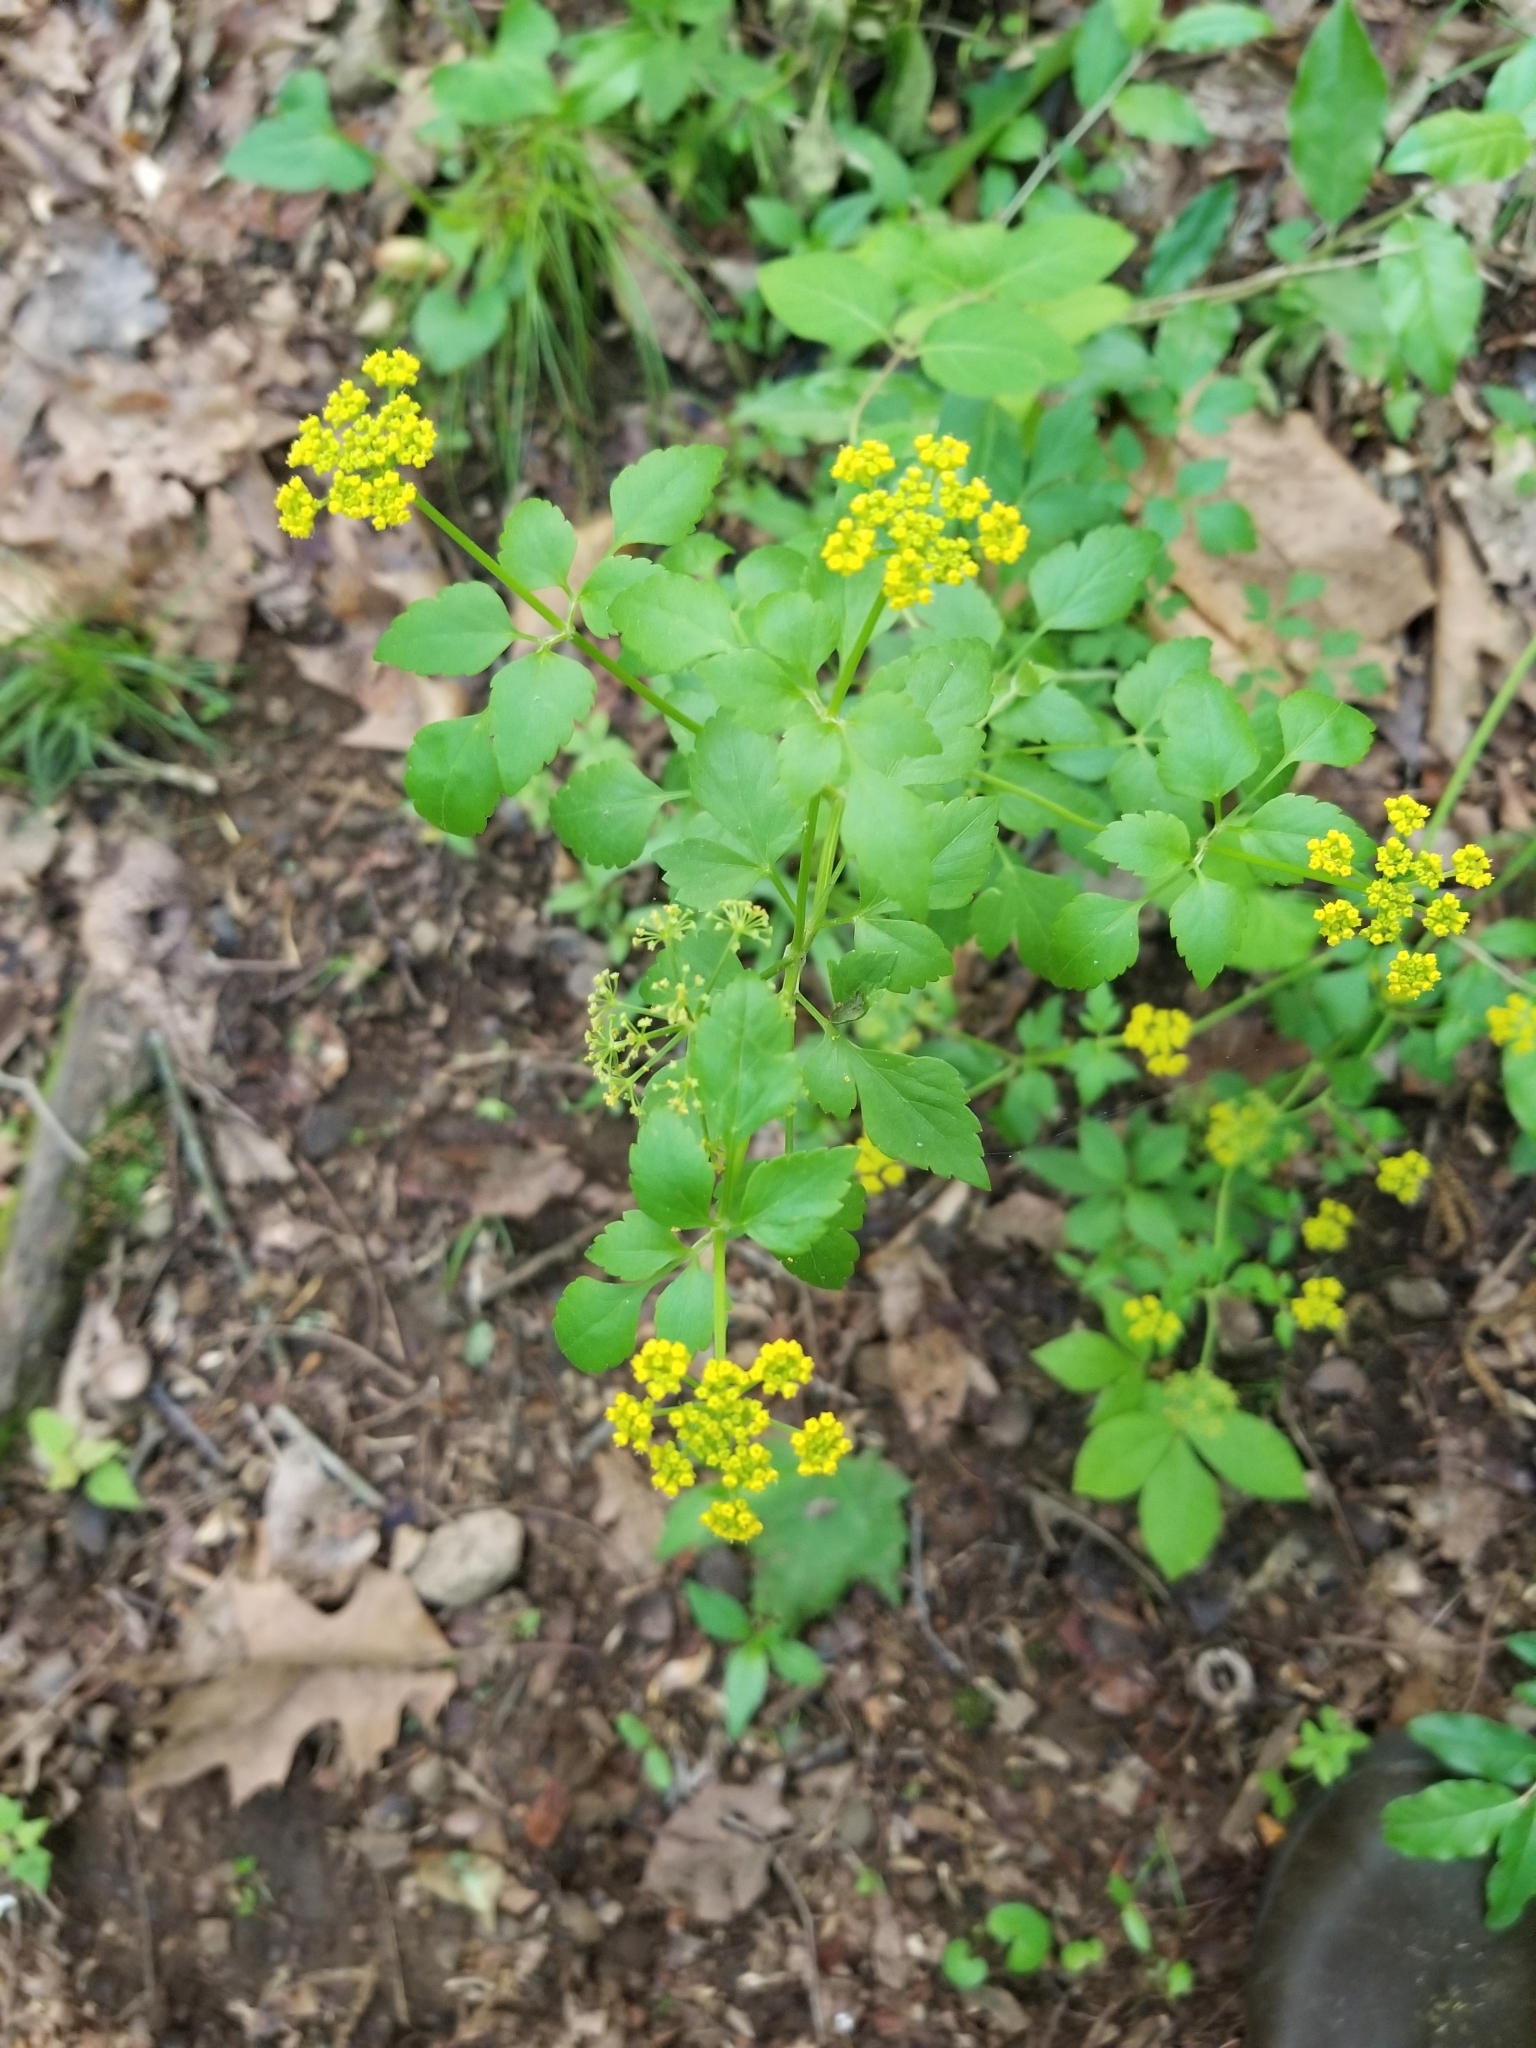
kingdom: Plantae
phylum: Tracheophyta
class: Magnoliopsida
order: Apiales
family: Apiaceae
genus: Thaspium
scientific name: Thaspium barbinode
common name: Bearded meadow-parsnip
